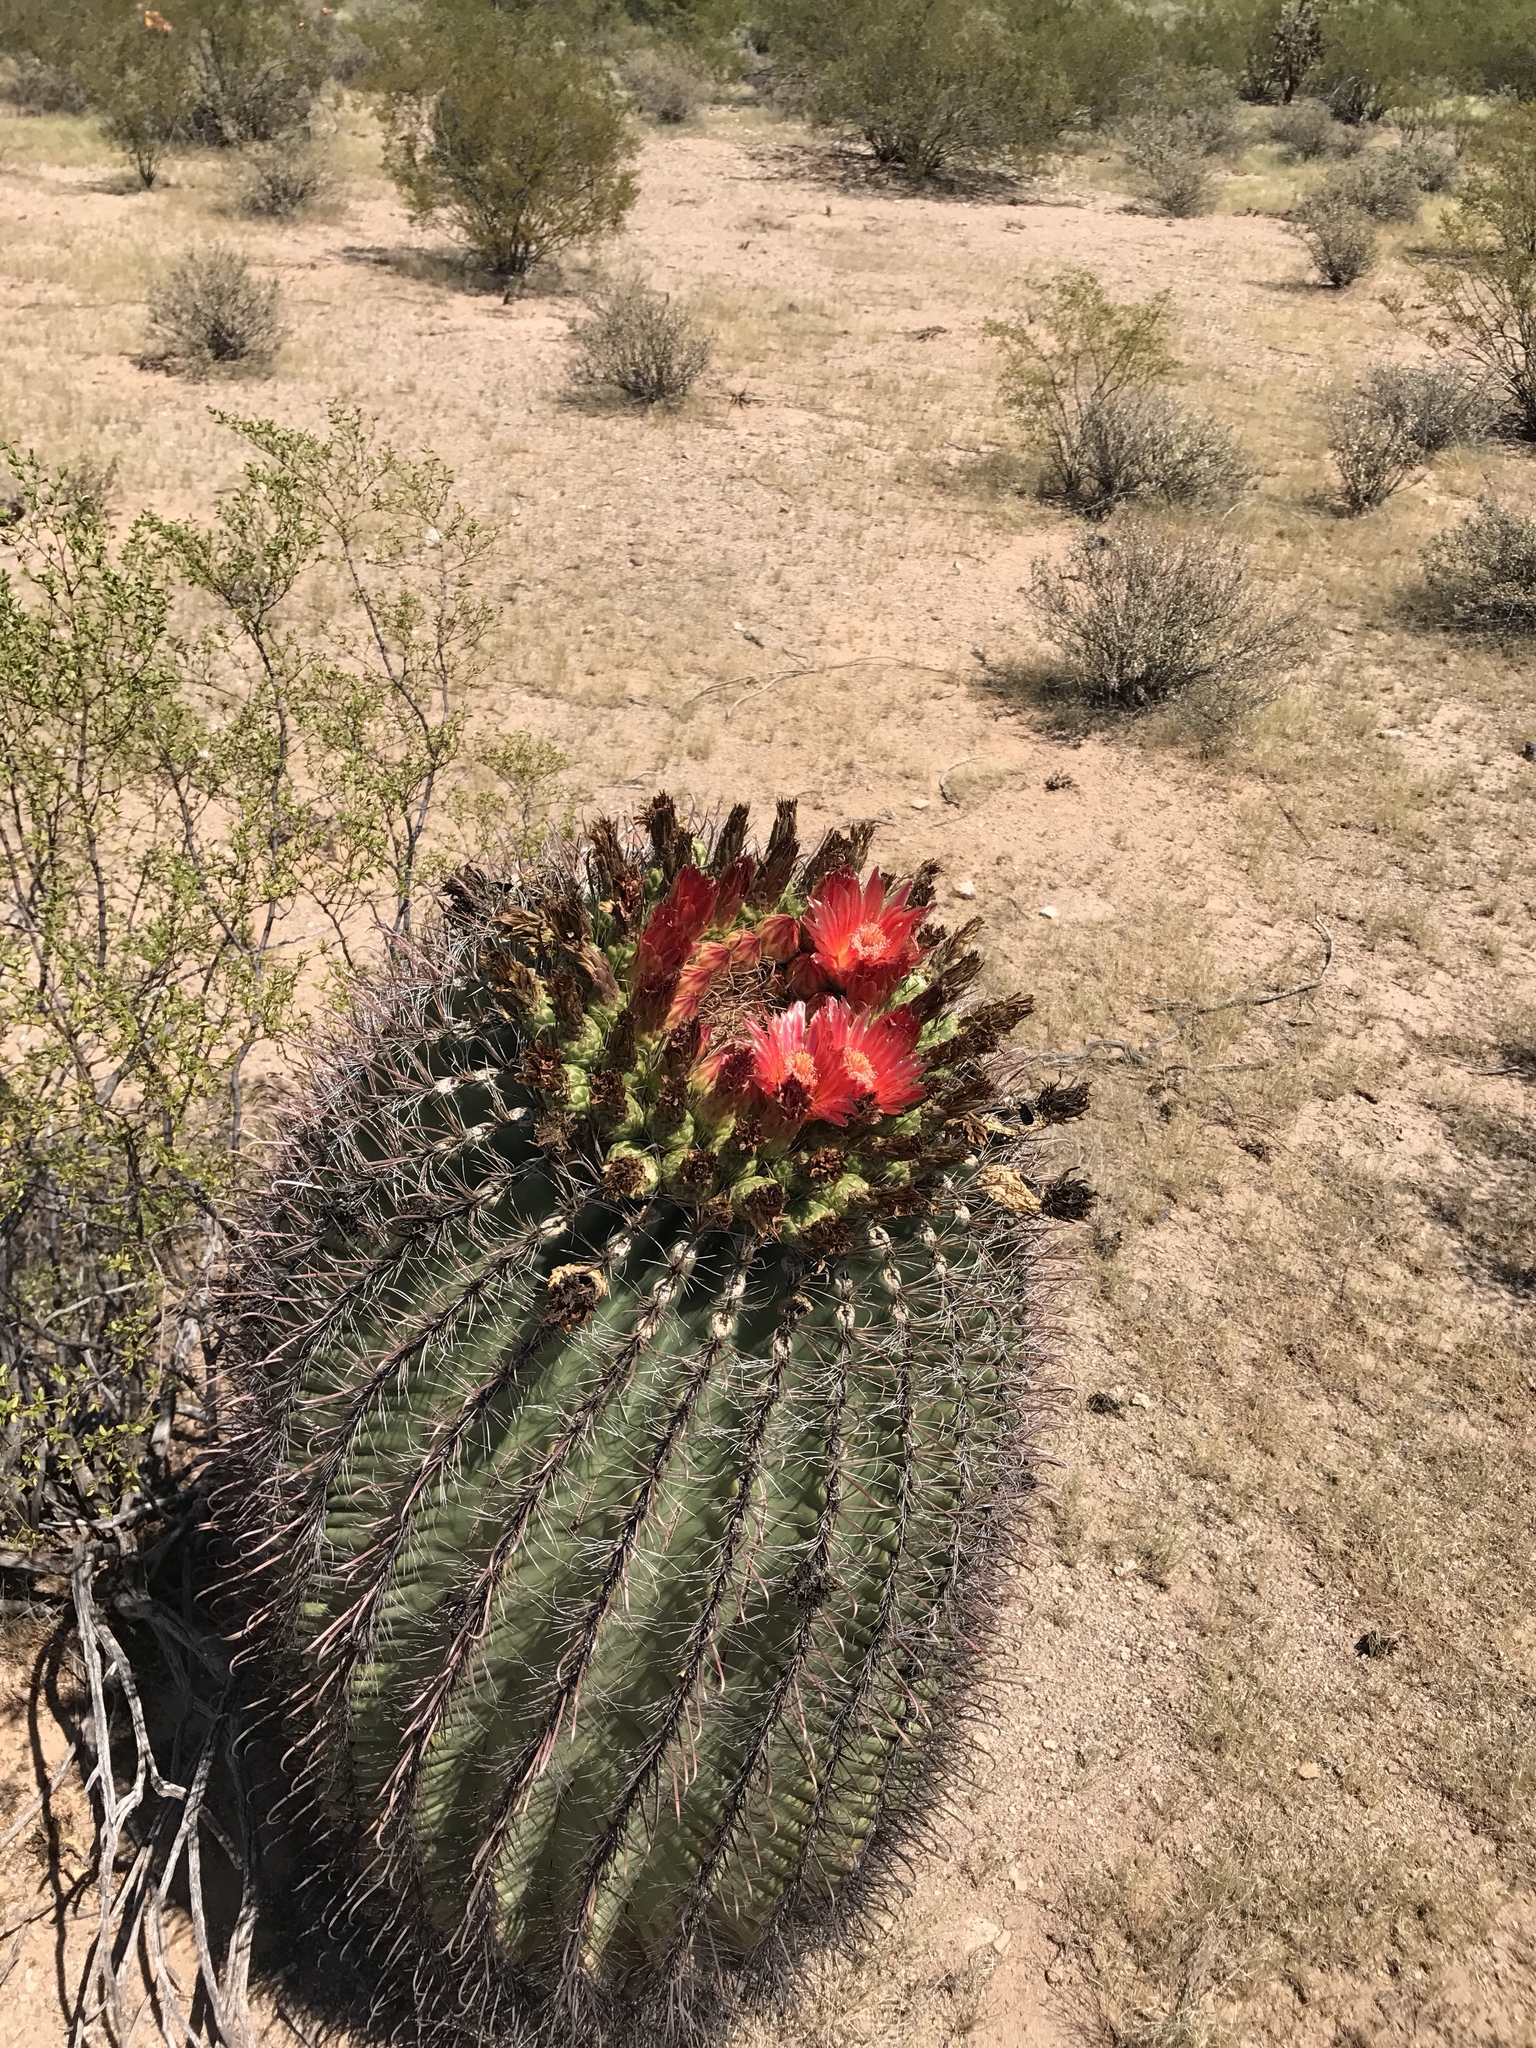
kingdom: Plantae
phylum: Tracheophyta
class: Magnoliopsida
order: Caryophyllales
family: Cactaceae
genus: Ferocactus
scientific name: Ferocactus wislizeni
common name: Candy barrel cactus
